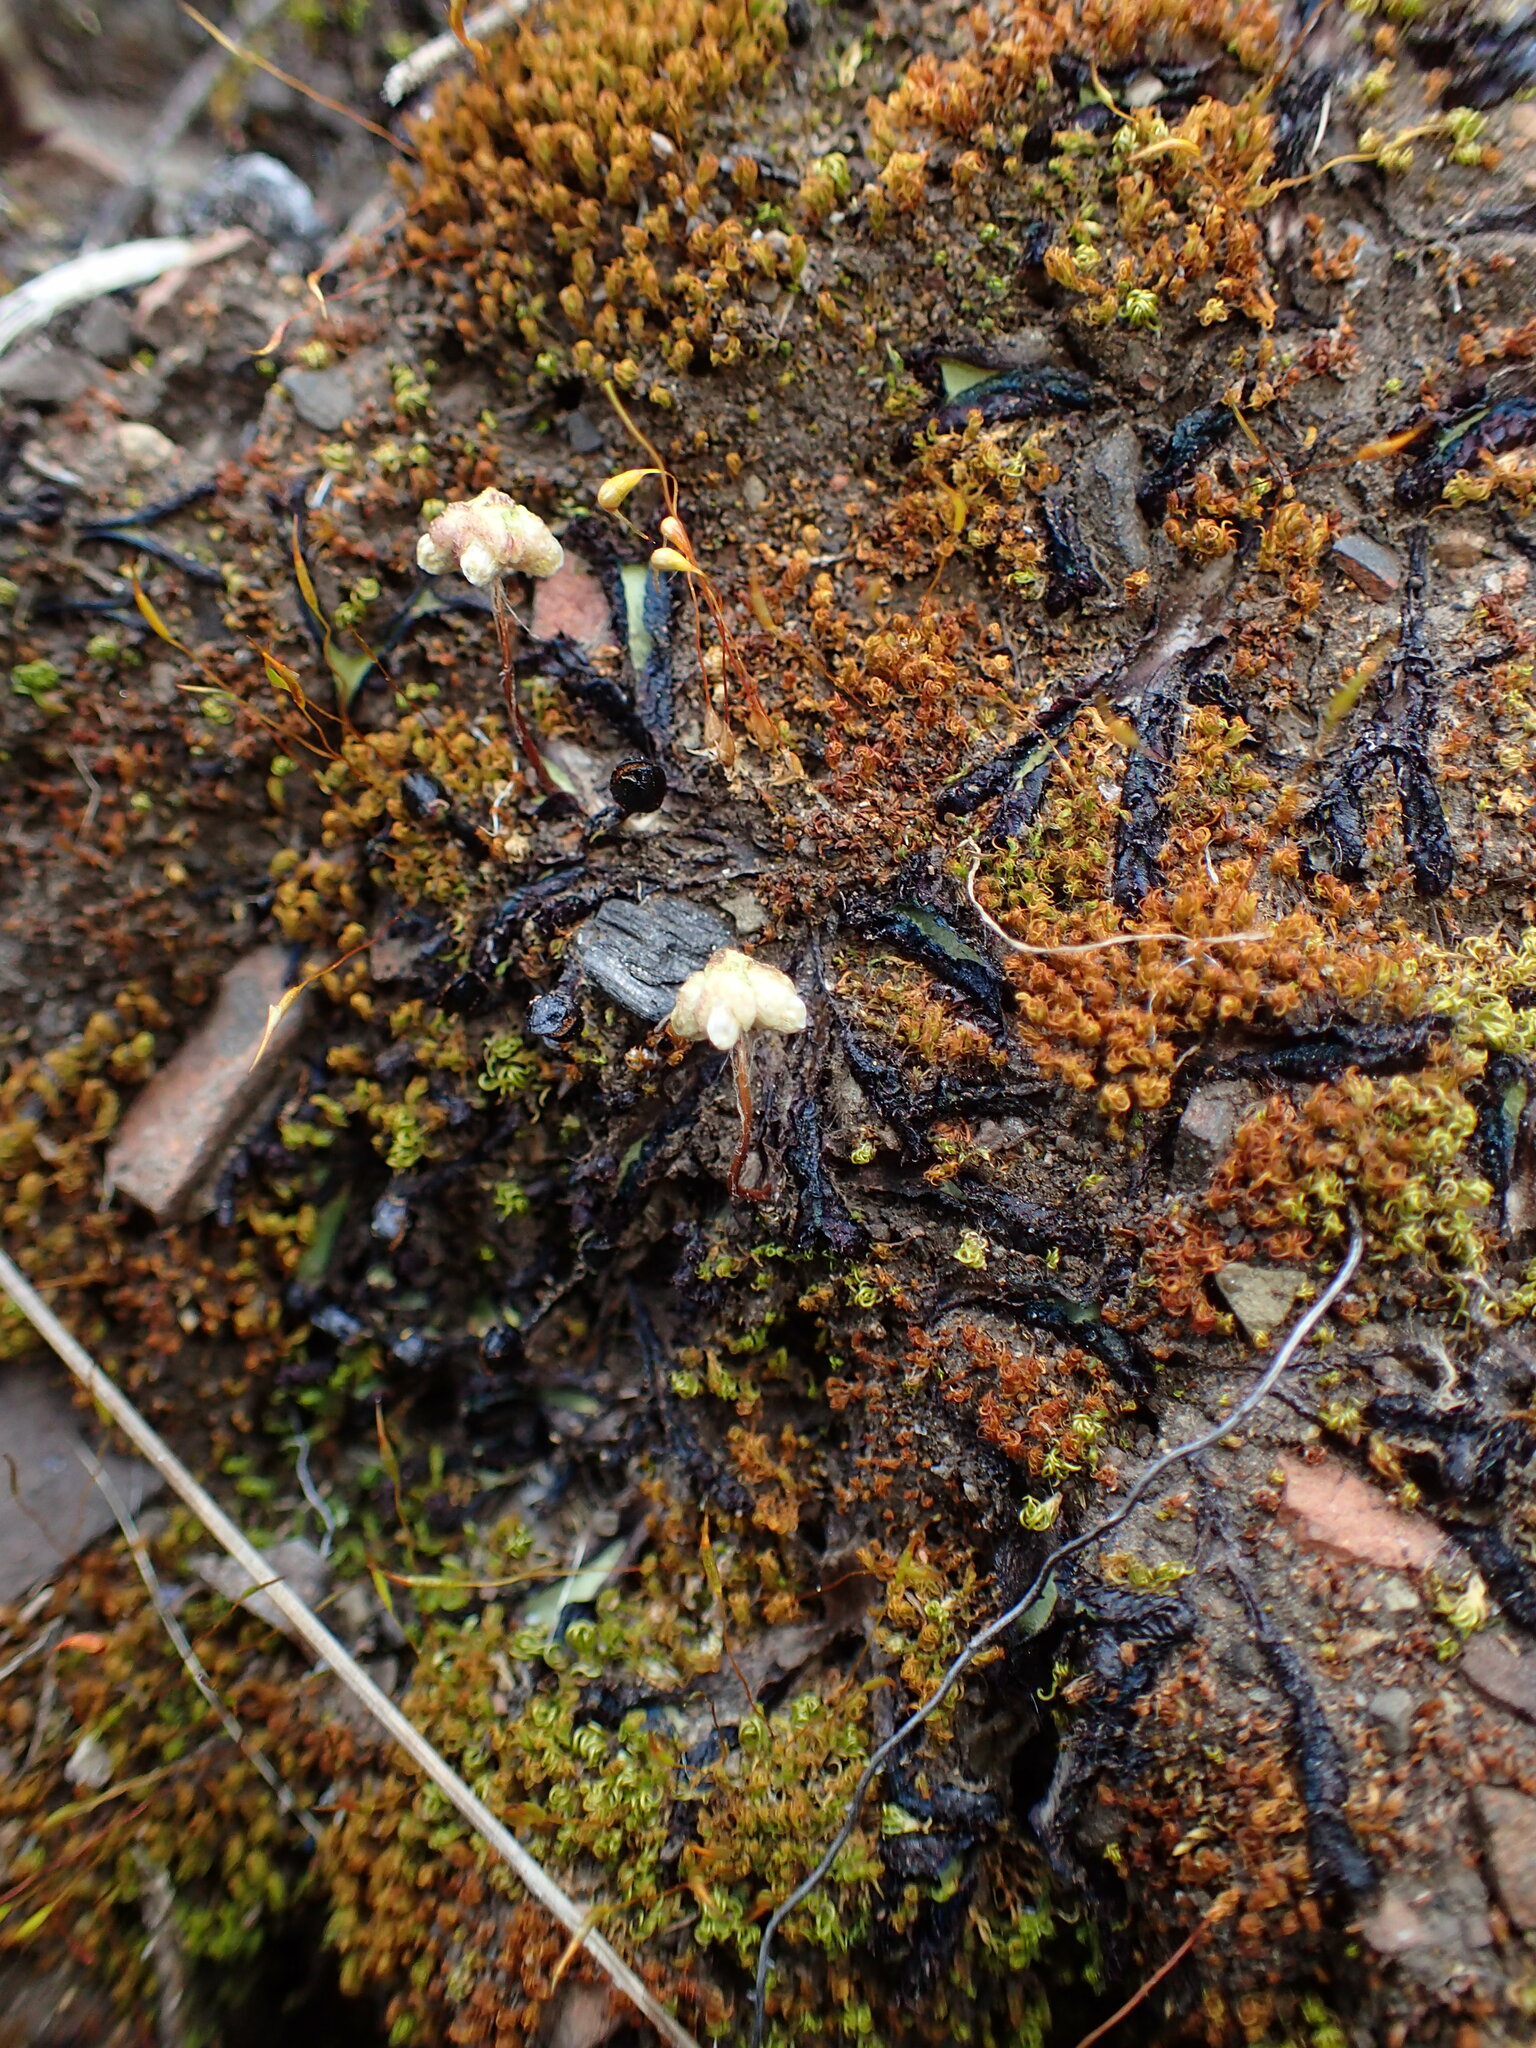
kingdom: Plantae
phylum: Marchantiophyta
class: Marchantiopsida
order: Marchantiales
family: Aytoniaceae
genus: Asterella
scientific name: Asterella californica
